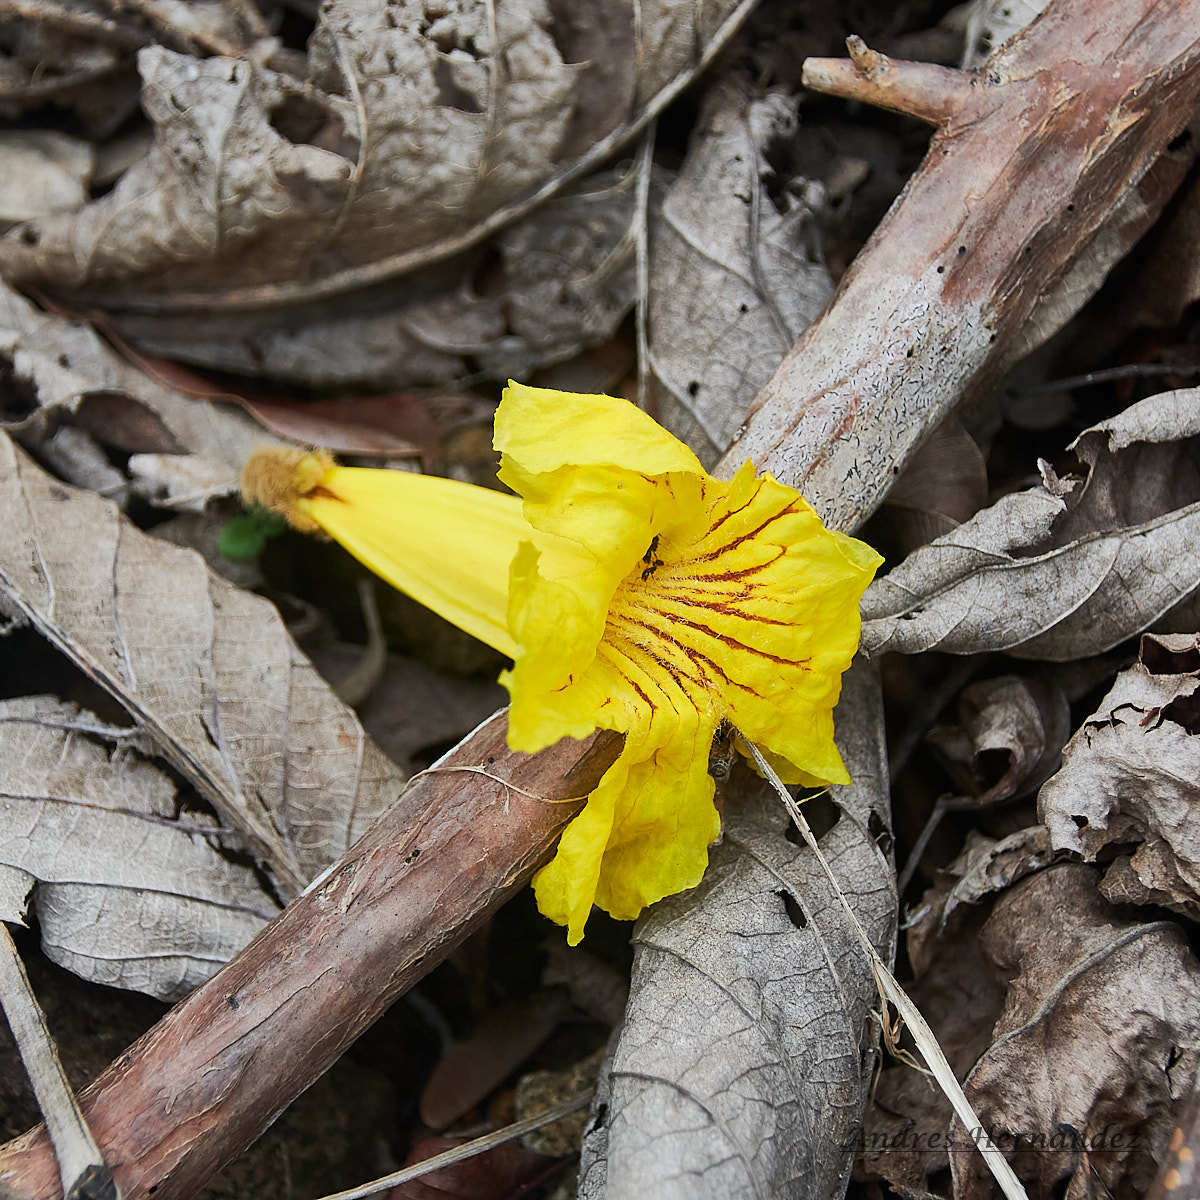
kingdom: Plantae
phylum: Tracheophyta
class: Magnoliopsida
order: Lamiales
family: Bignoniaceae
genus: Handroanthus
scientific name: Handroanthus ochraceus
